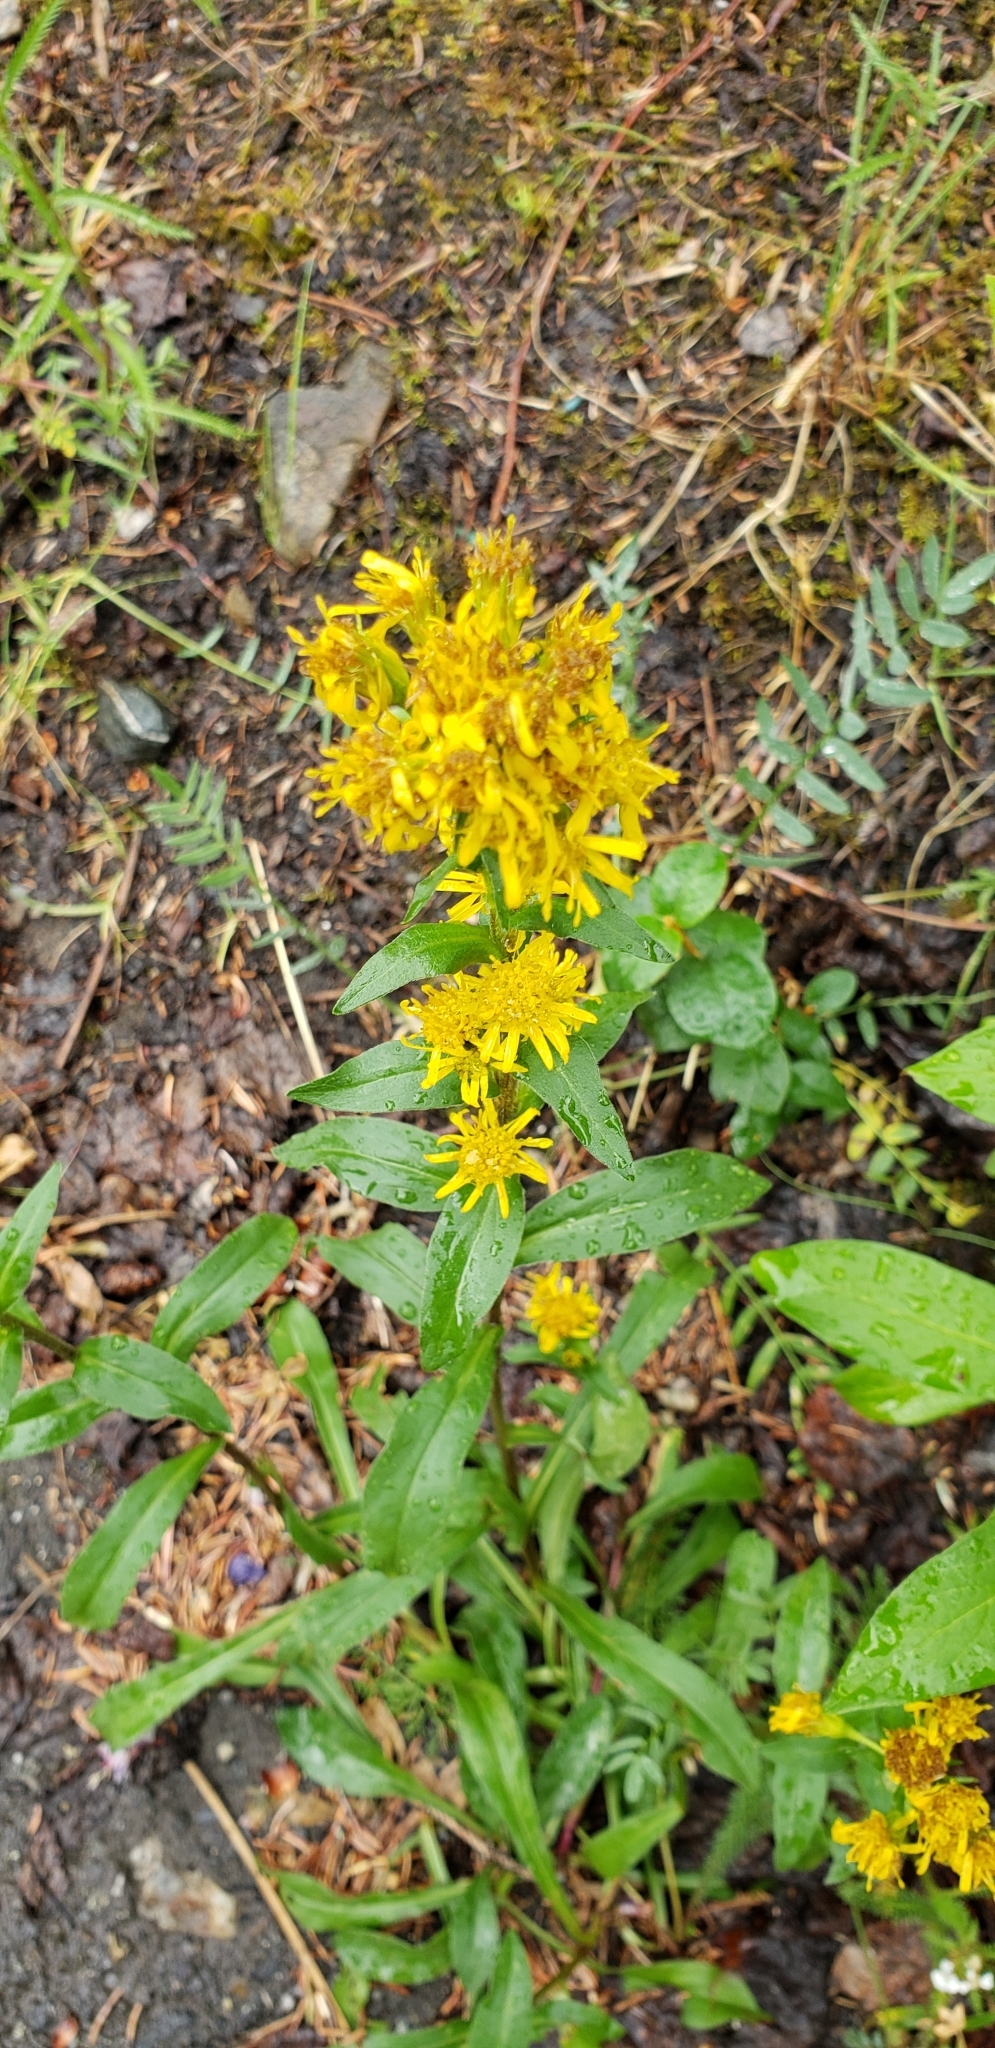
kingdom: Plantae
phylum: Tracheophyta
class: Magnoliopsida
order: Asterales
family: Asteraceae
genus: Solidago
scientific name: Solidago multiradiata
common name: Northern goldenrod
